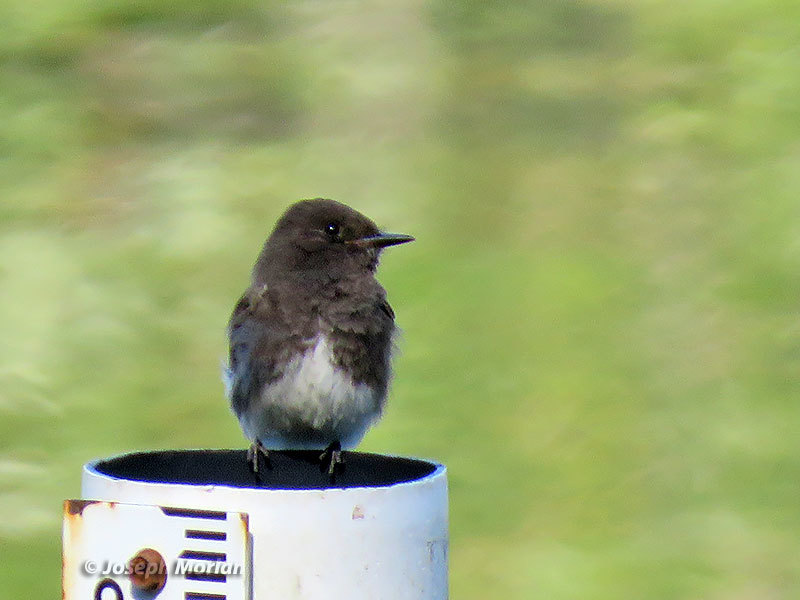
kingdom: Animalia
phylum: Chordata
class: Aves
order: Passeriformes
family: Tyrannidae
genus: Sayornis
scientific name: Sayornis nigricans
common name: Black phoebe
